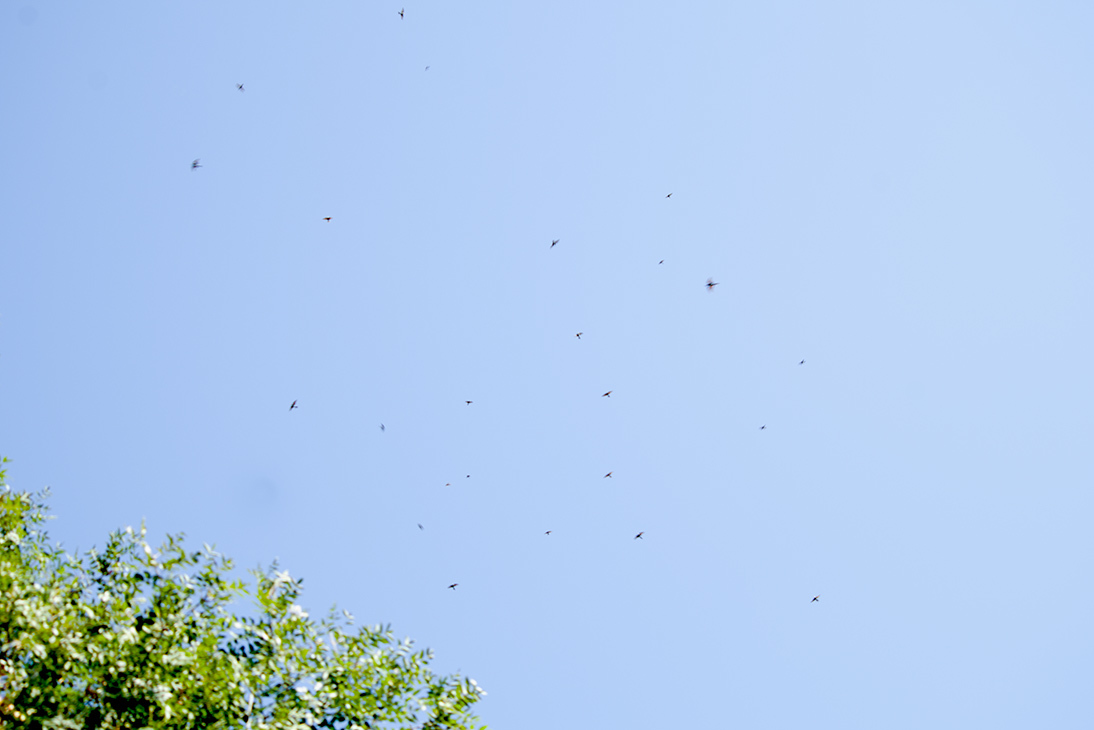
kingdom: Animalia
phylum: Chordata
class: Aves
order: Coraciiformes
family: Meropidae
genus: Merops
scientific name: Merops apiaster
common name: European bee-eater
